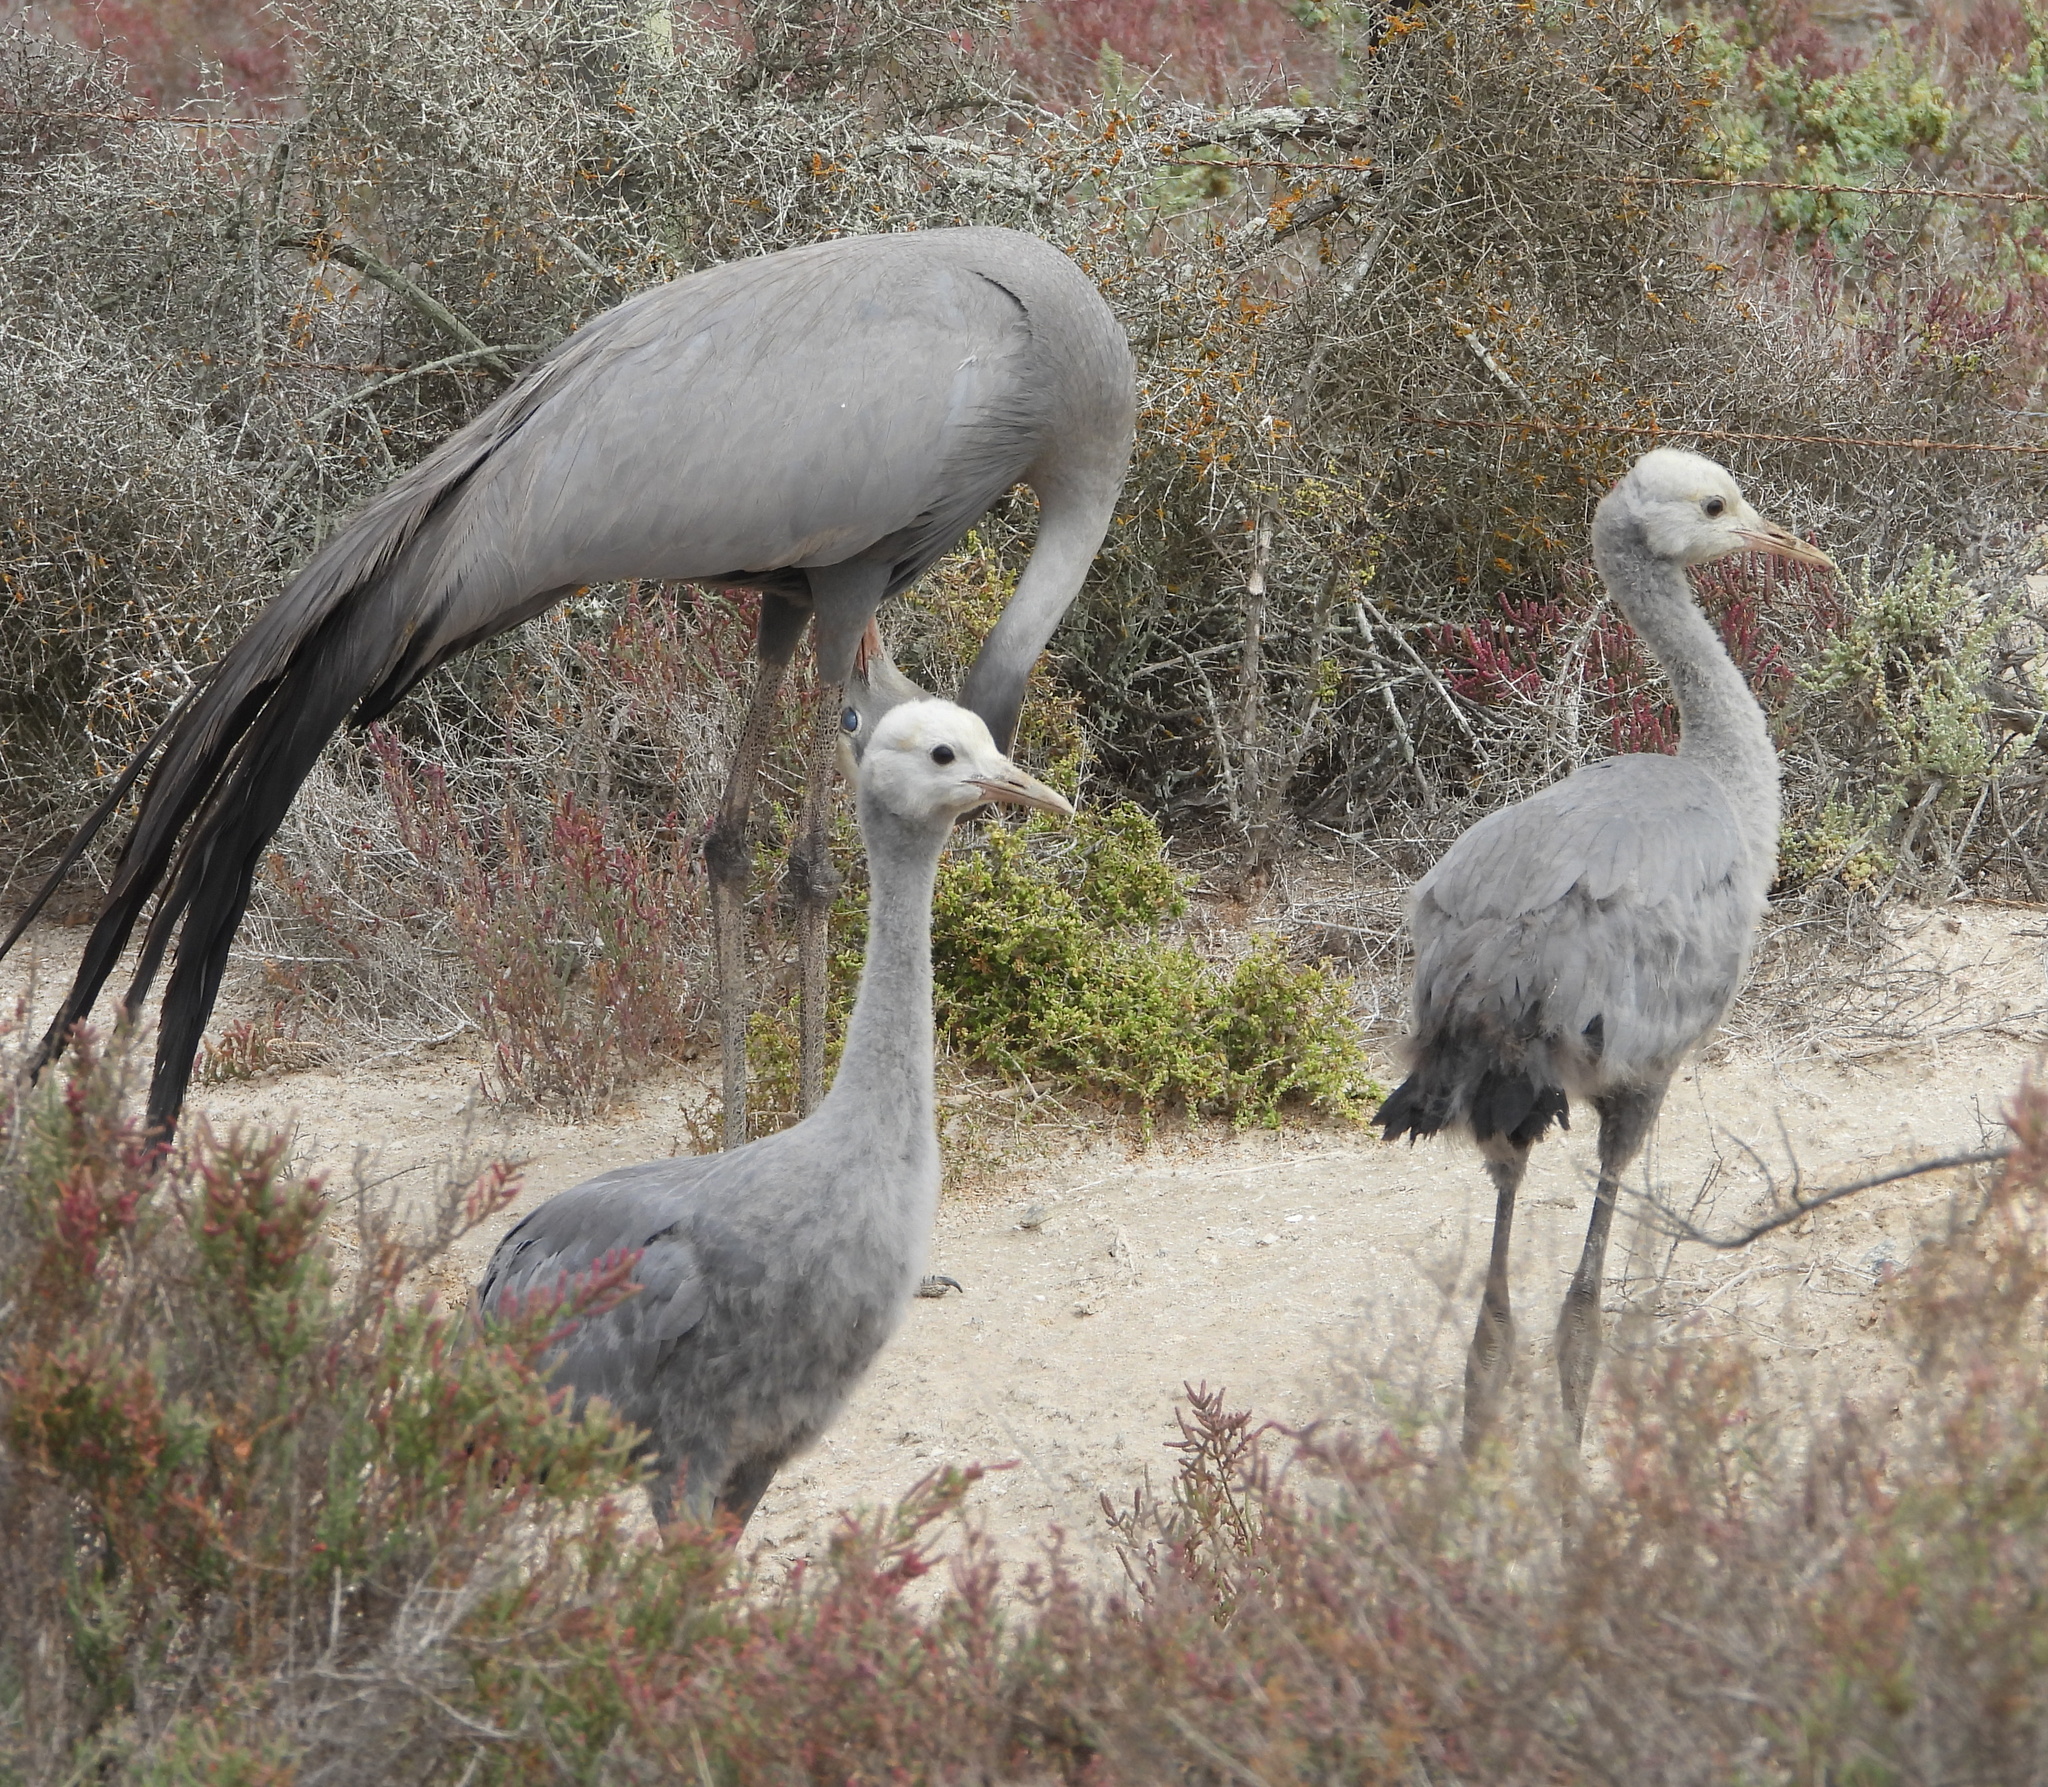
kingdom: Animalia
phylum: Chordata
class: Aves
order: Gruiformes
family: Gruidae
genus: Anthropoides
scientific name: Anthropoides paradiseus
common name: Blue crane
